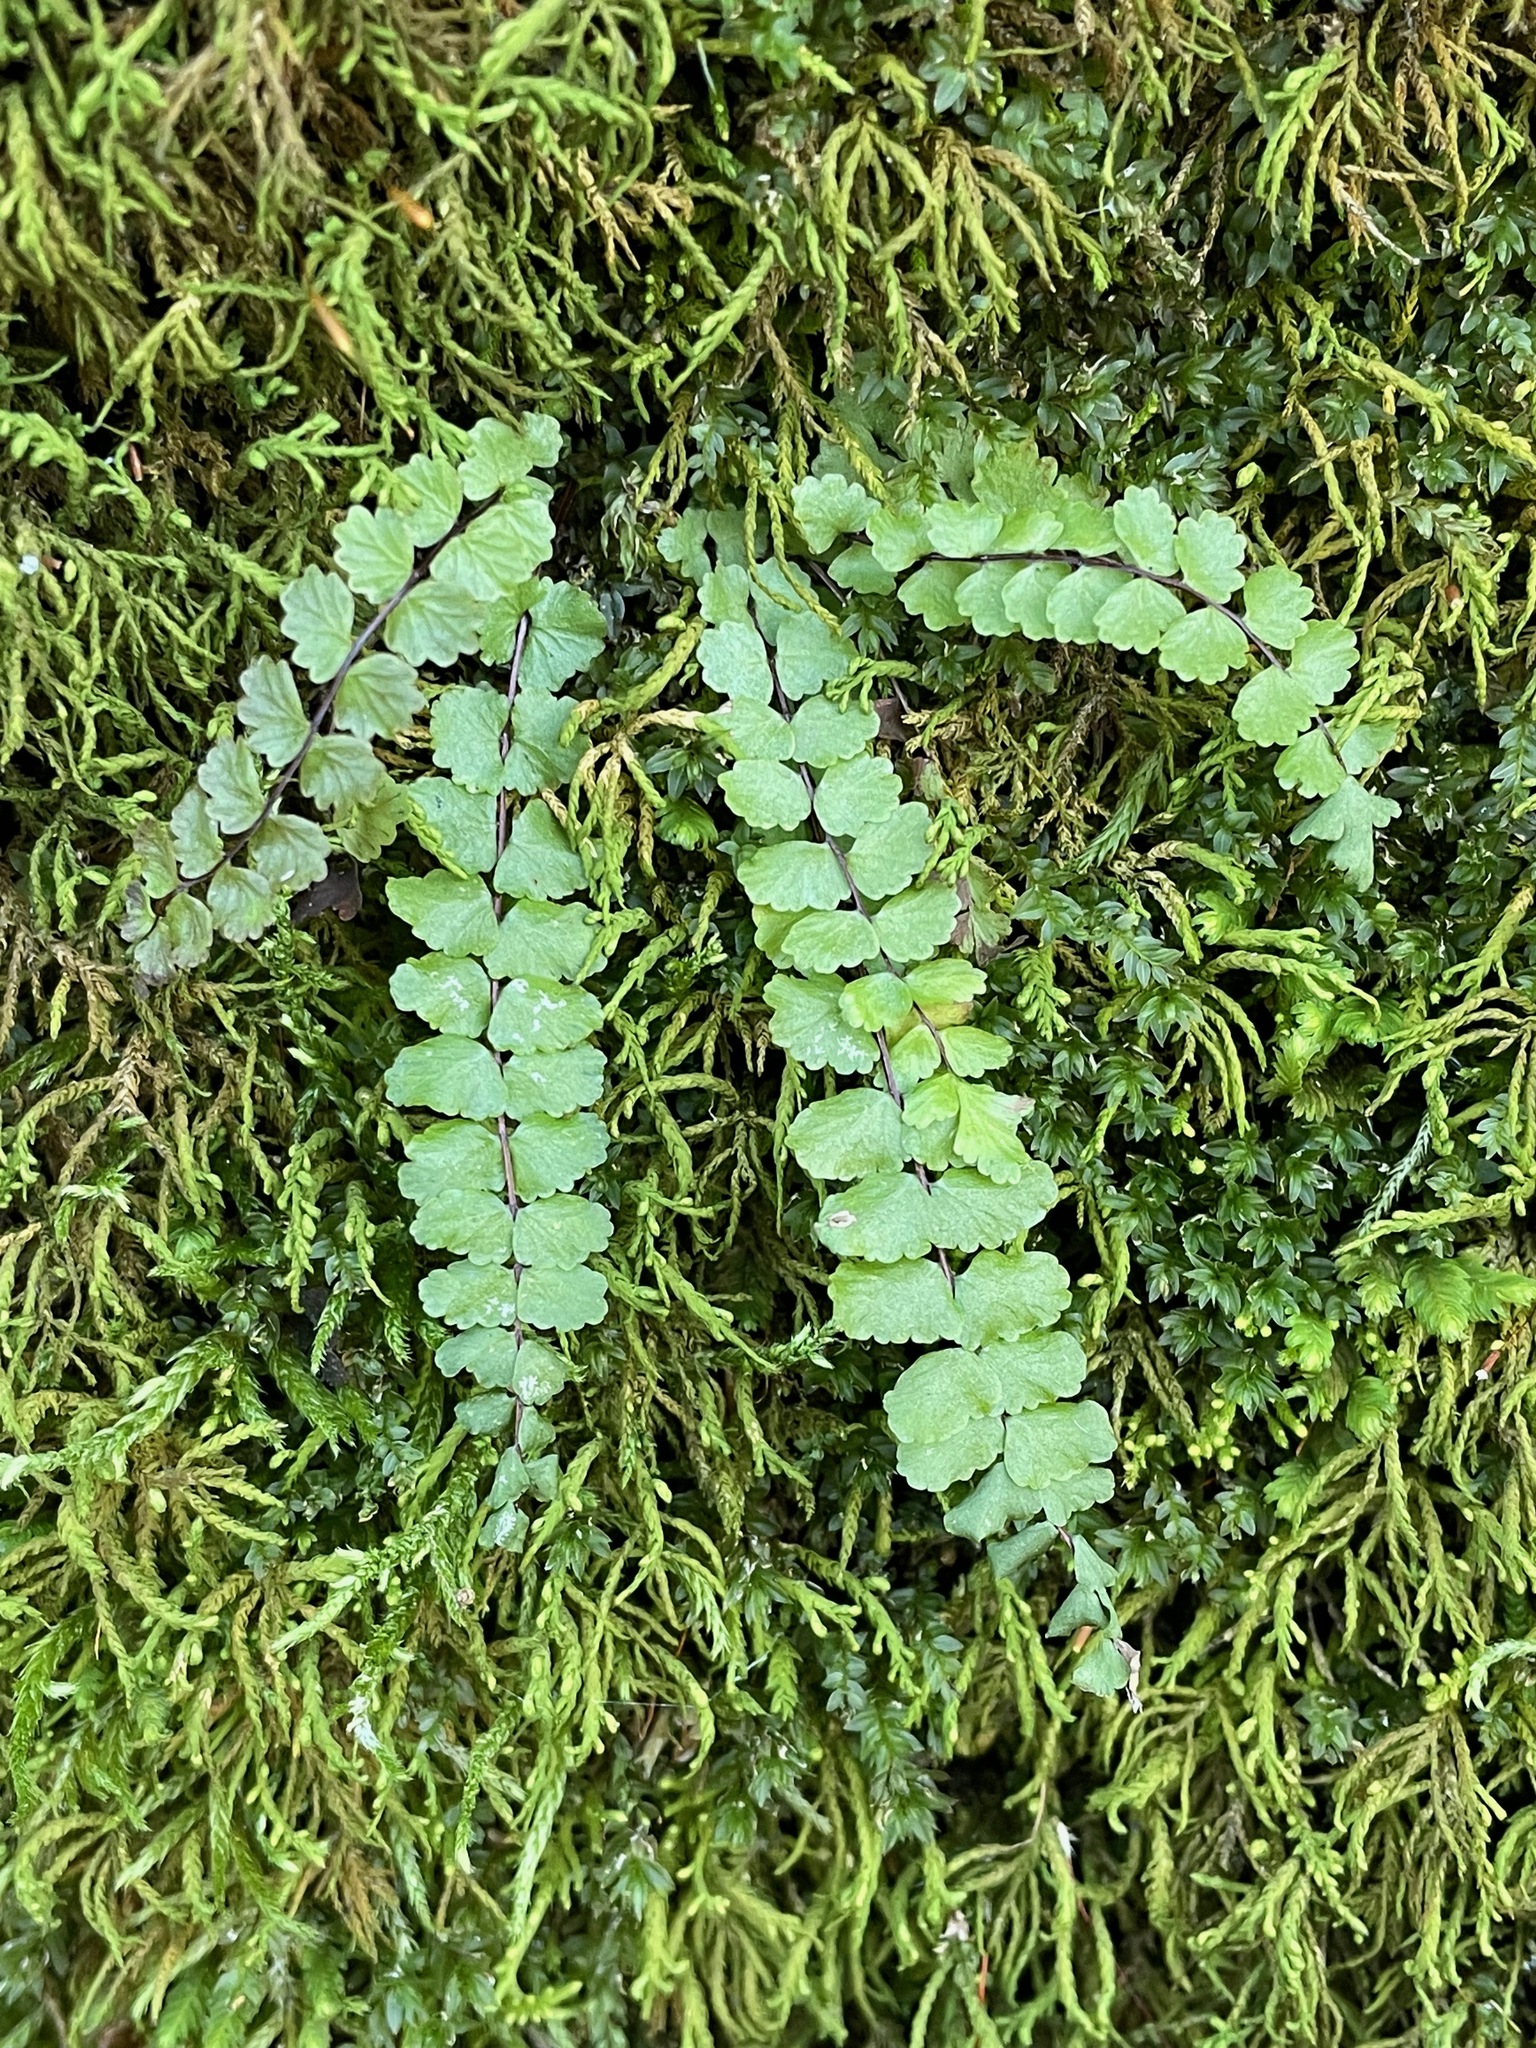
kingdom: Plantae
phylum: Tracheophyta
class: Polypodiopsida
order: Polypodiales
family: Aspleniaceae
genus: Asplenium
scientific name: Asplenium trichomanes
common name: Maidenhair spleenwort
